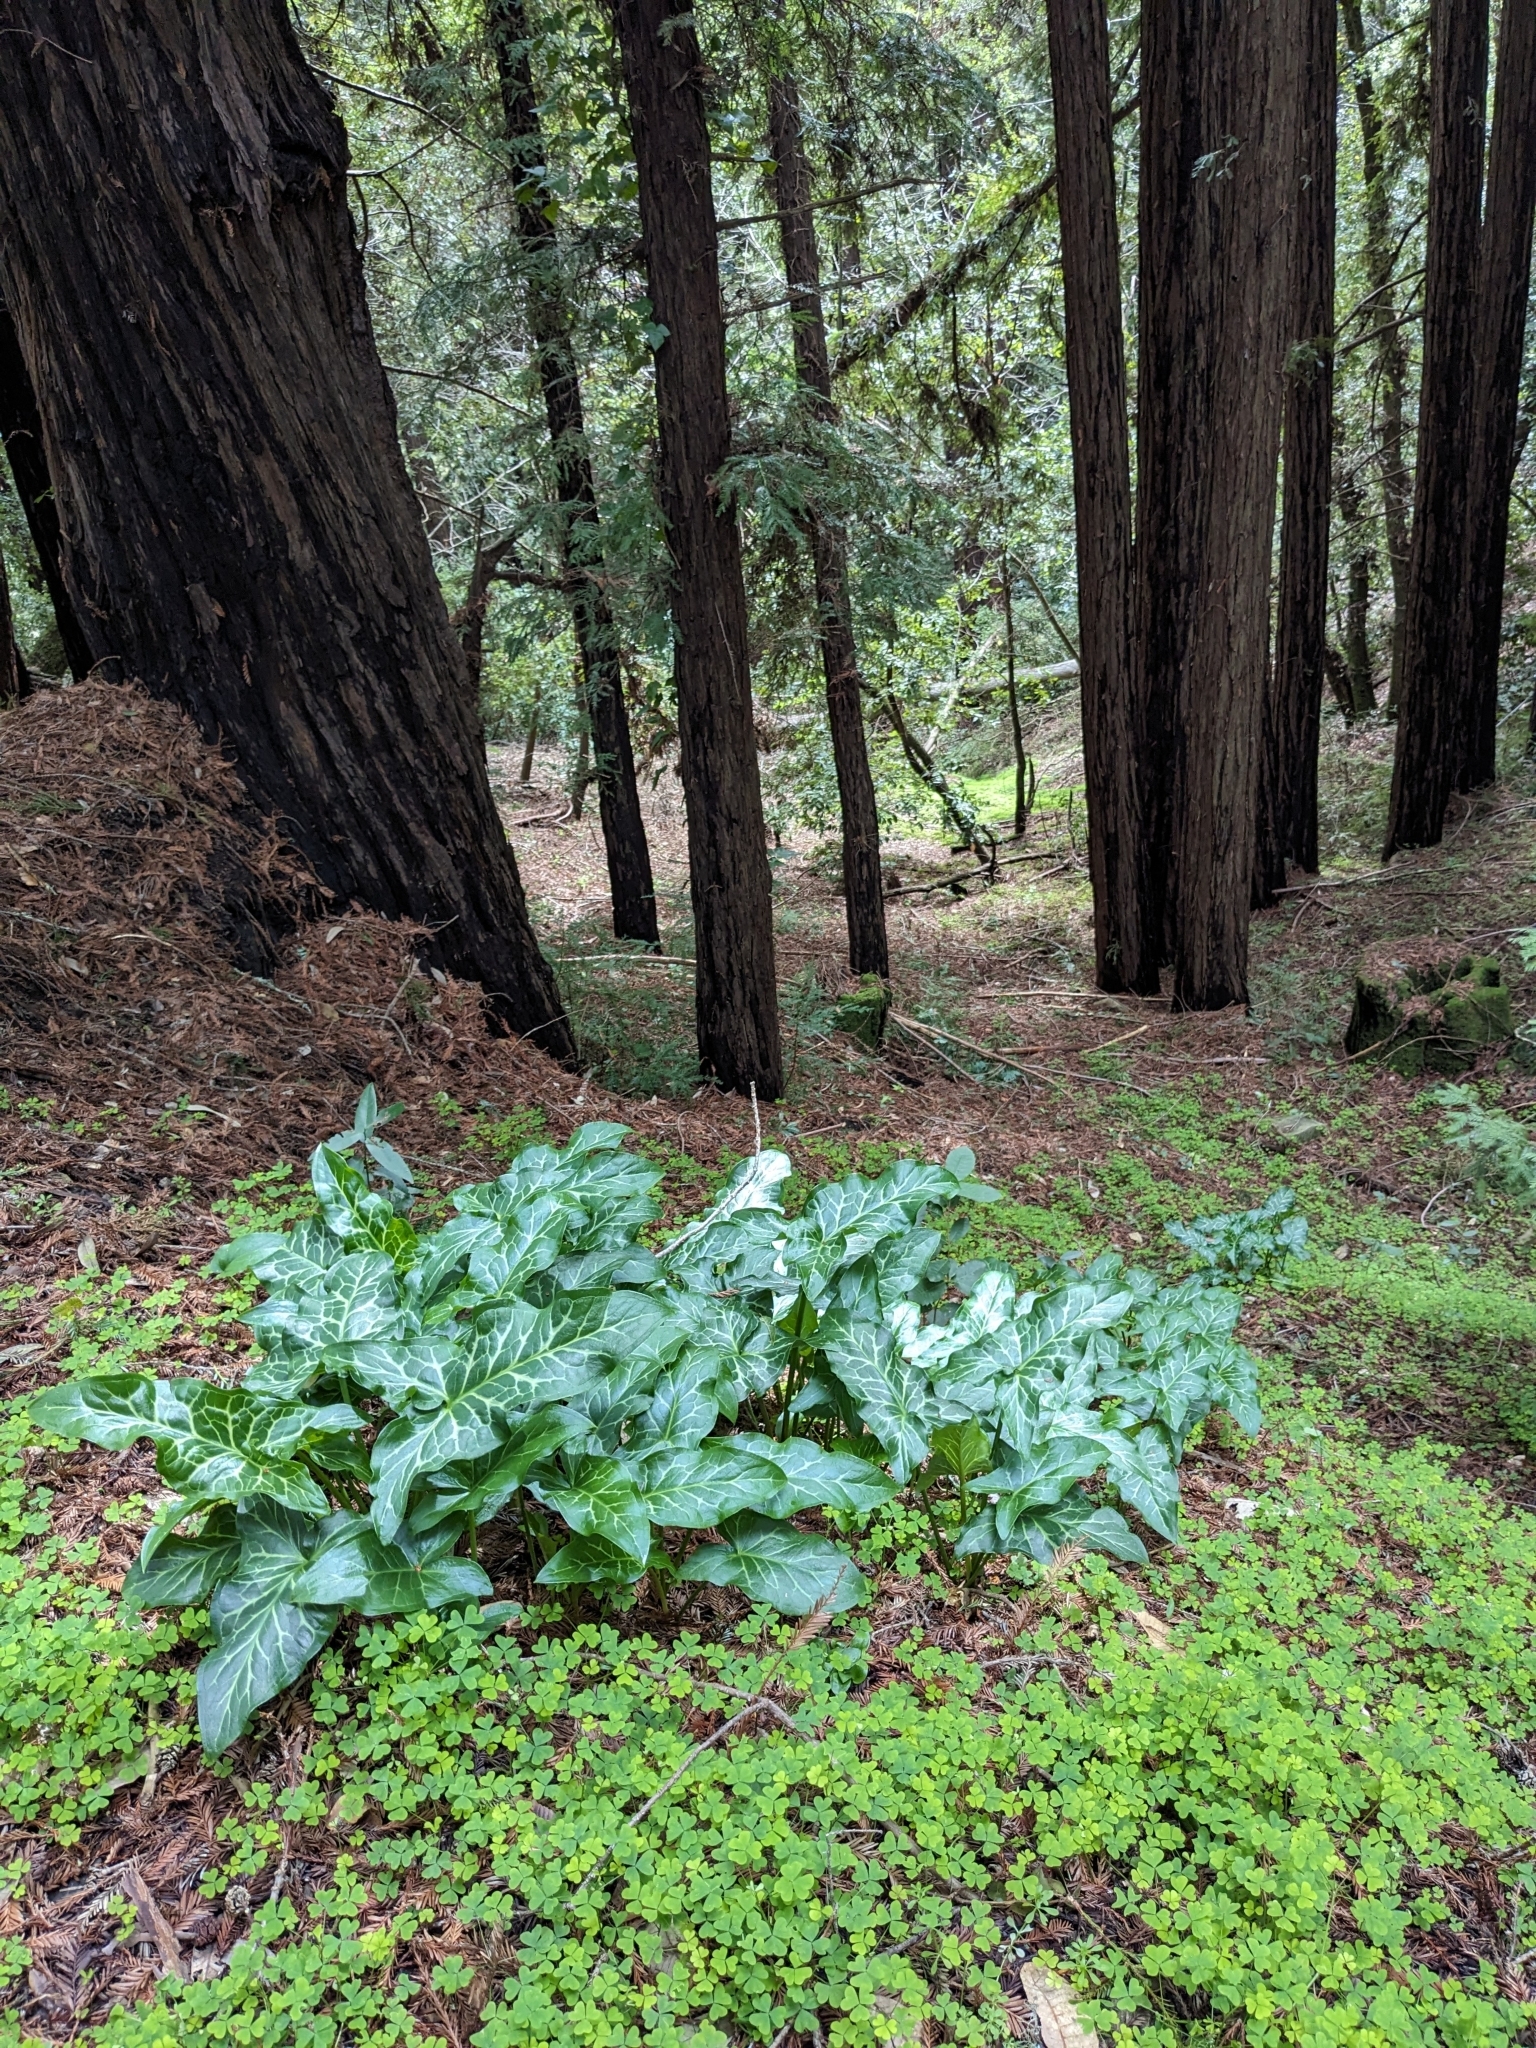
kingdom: Plantae
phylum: Tracheophyta
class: Liliopsida
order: Alismatales
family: Araceae
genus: Arum
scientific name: Arum italicum
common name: Italian lords-and-ladies
